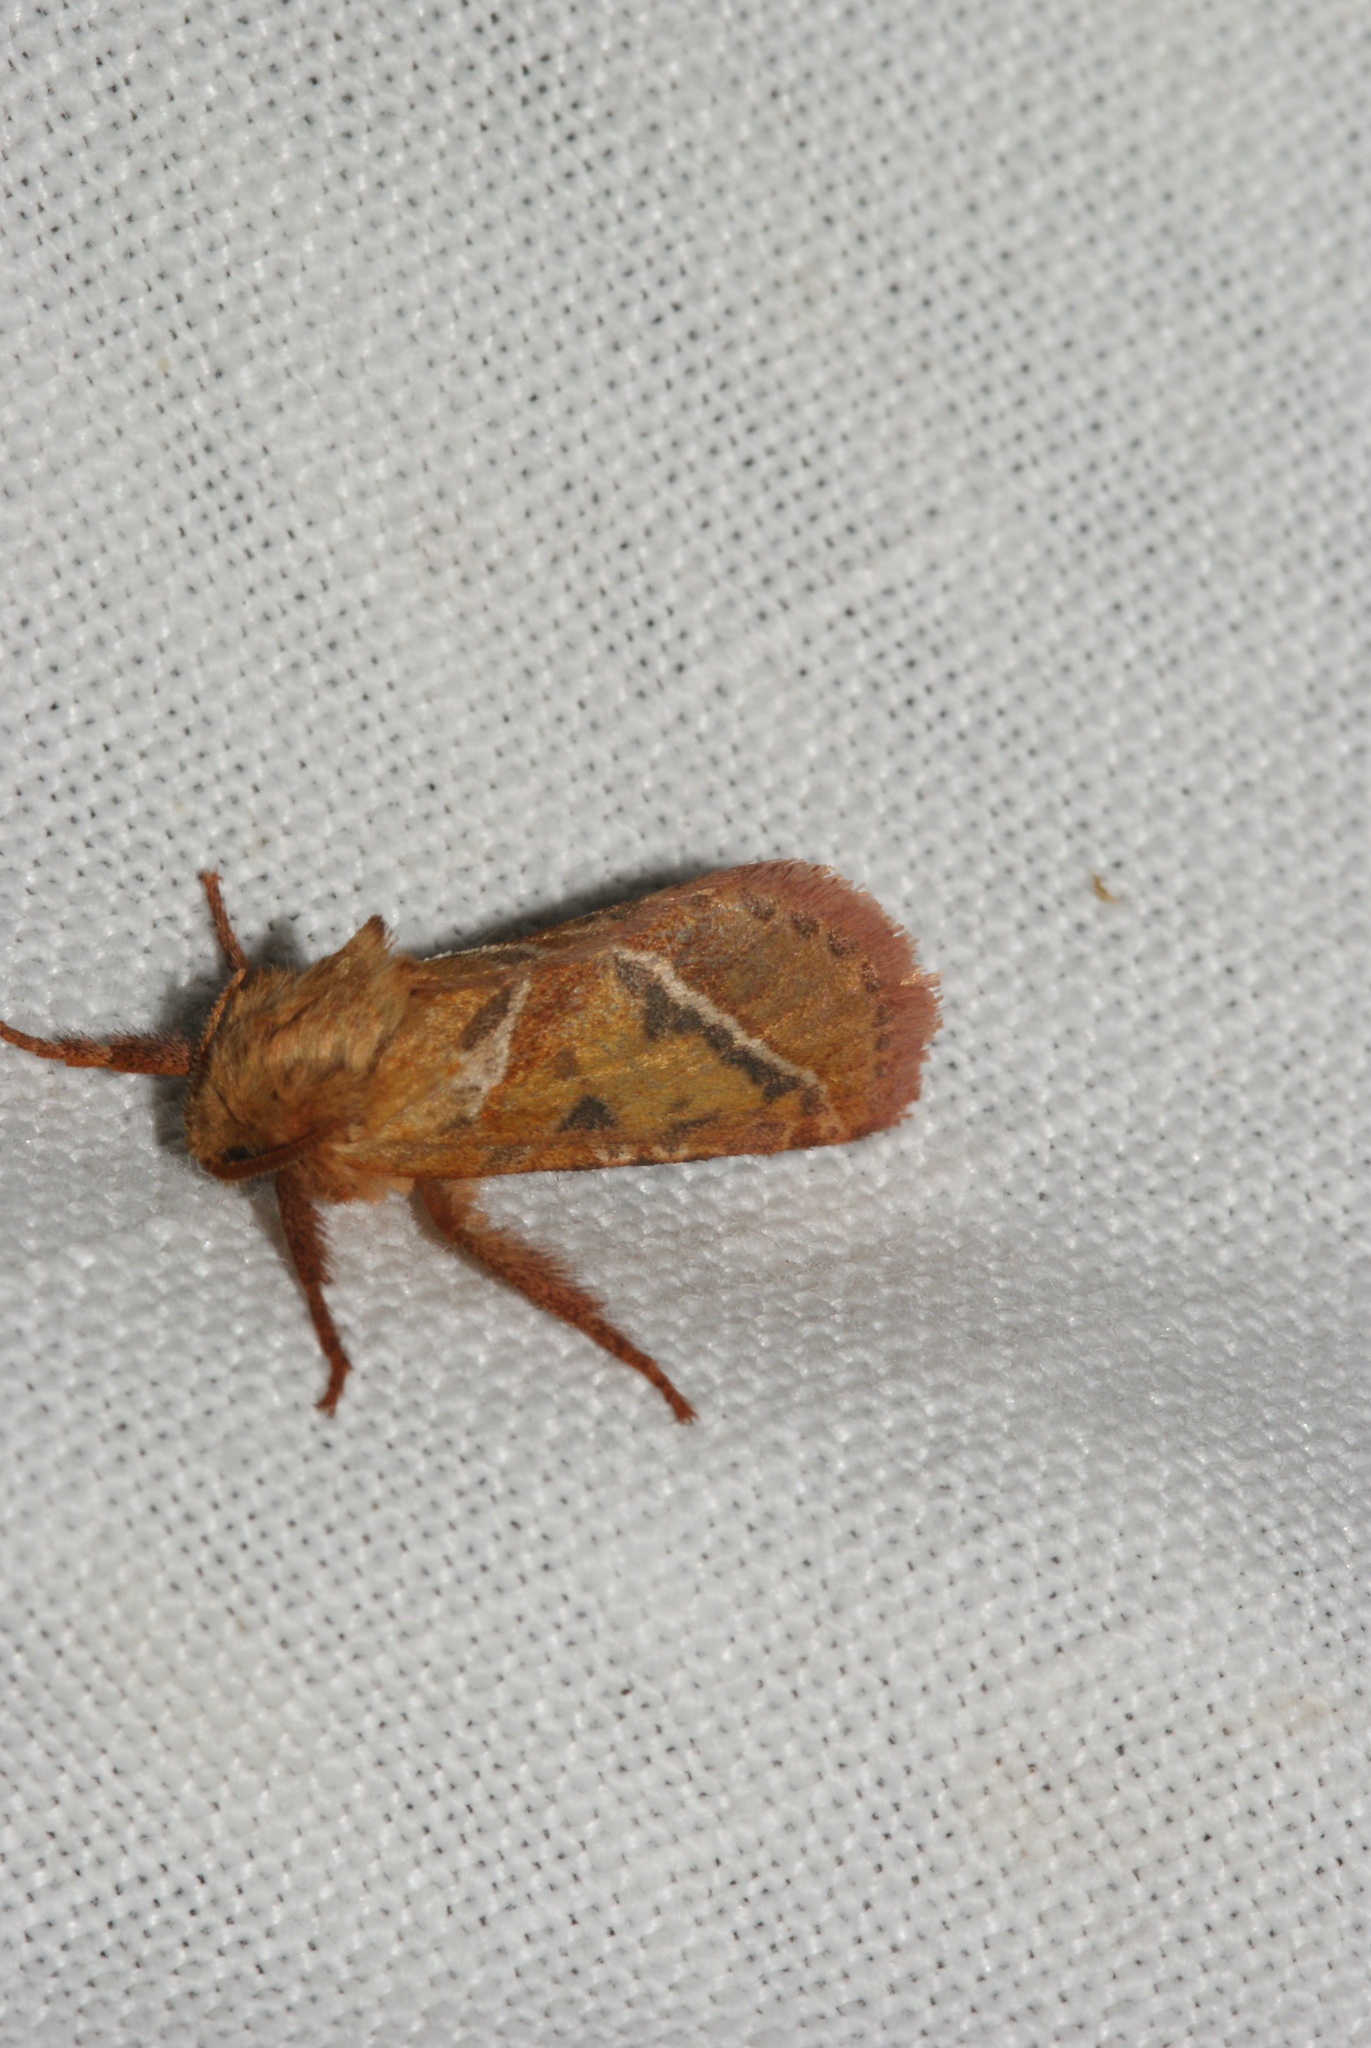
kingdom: Animalia
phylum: Arthropoda
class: Insecta
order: Lepidoptera
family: Hepialidae
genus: Triodia
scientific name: Triodia sylvina
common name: Orange swift
